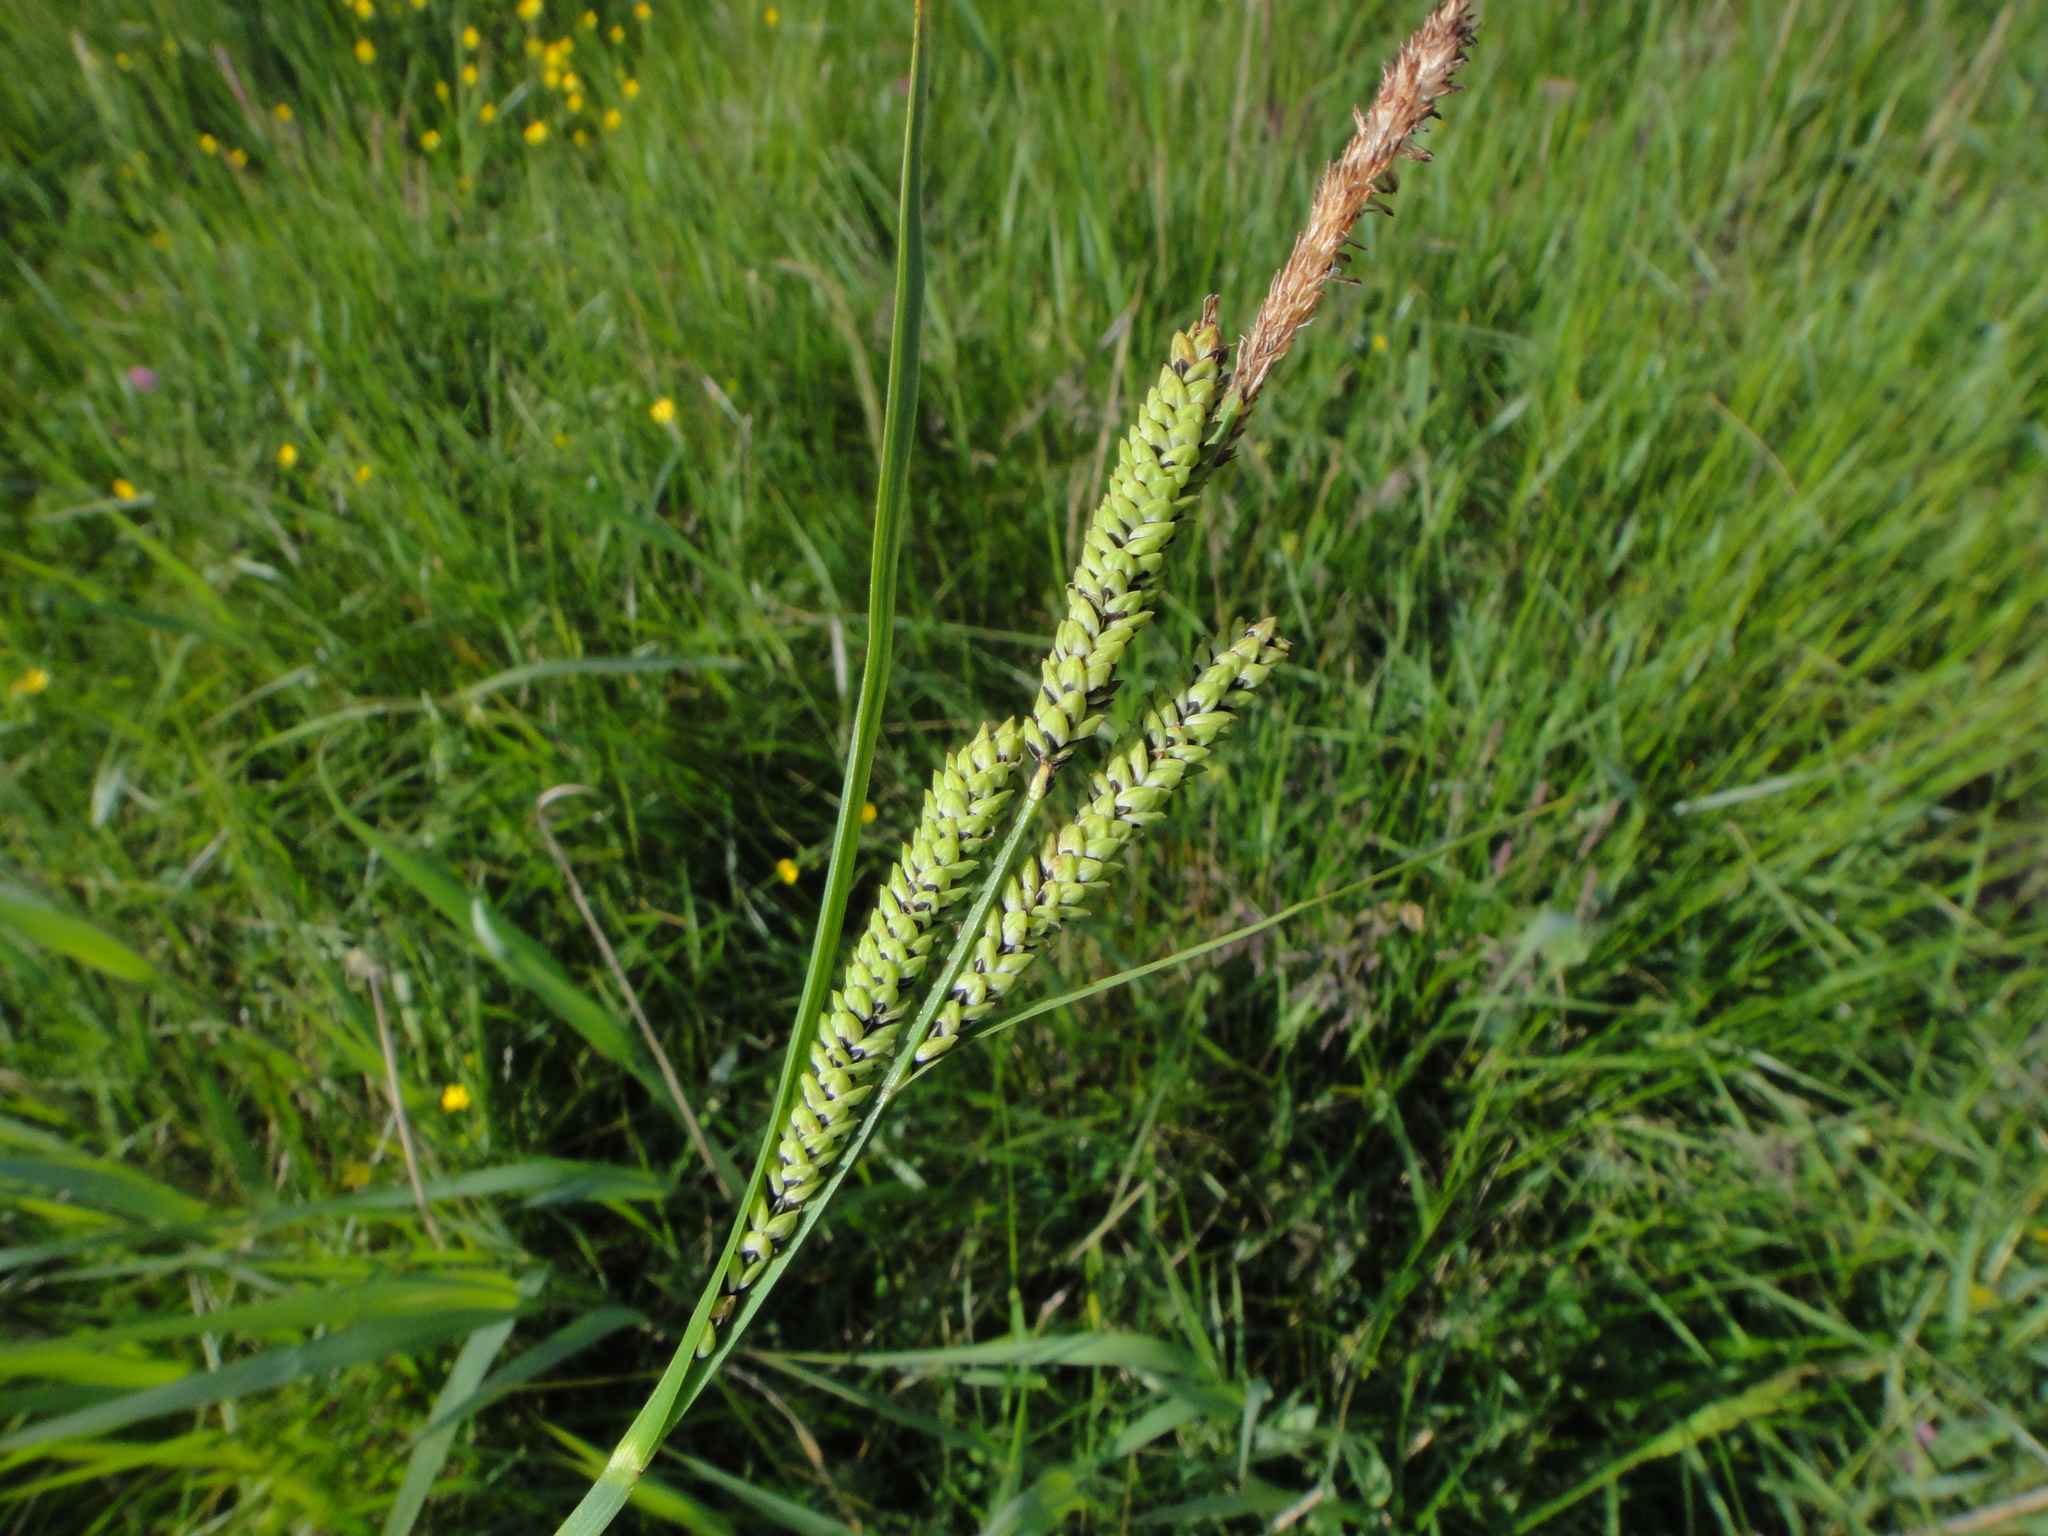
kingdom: Plantae
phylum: Tracheophyta
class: Liliopsida
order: Poales
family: Cyperaceae
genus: Carex
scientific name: Carex nigra
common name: Common sedge
